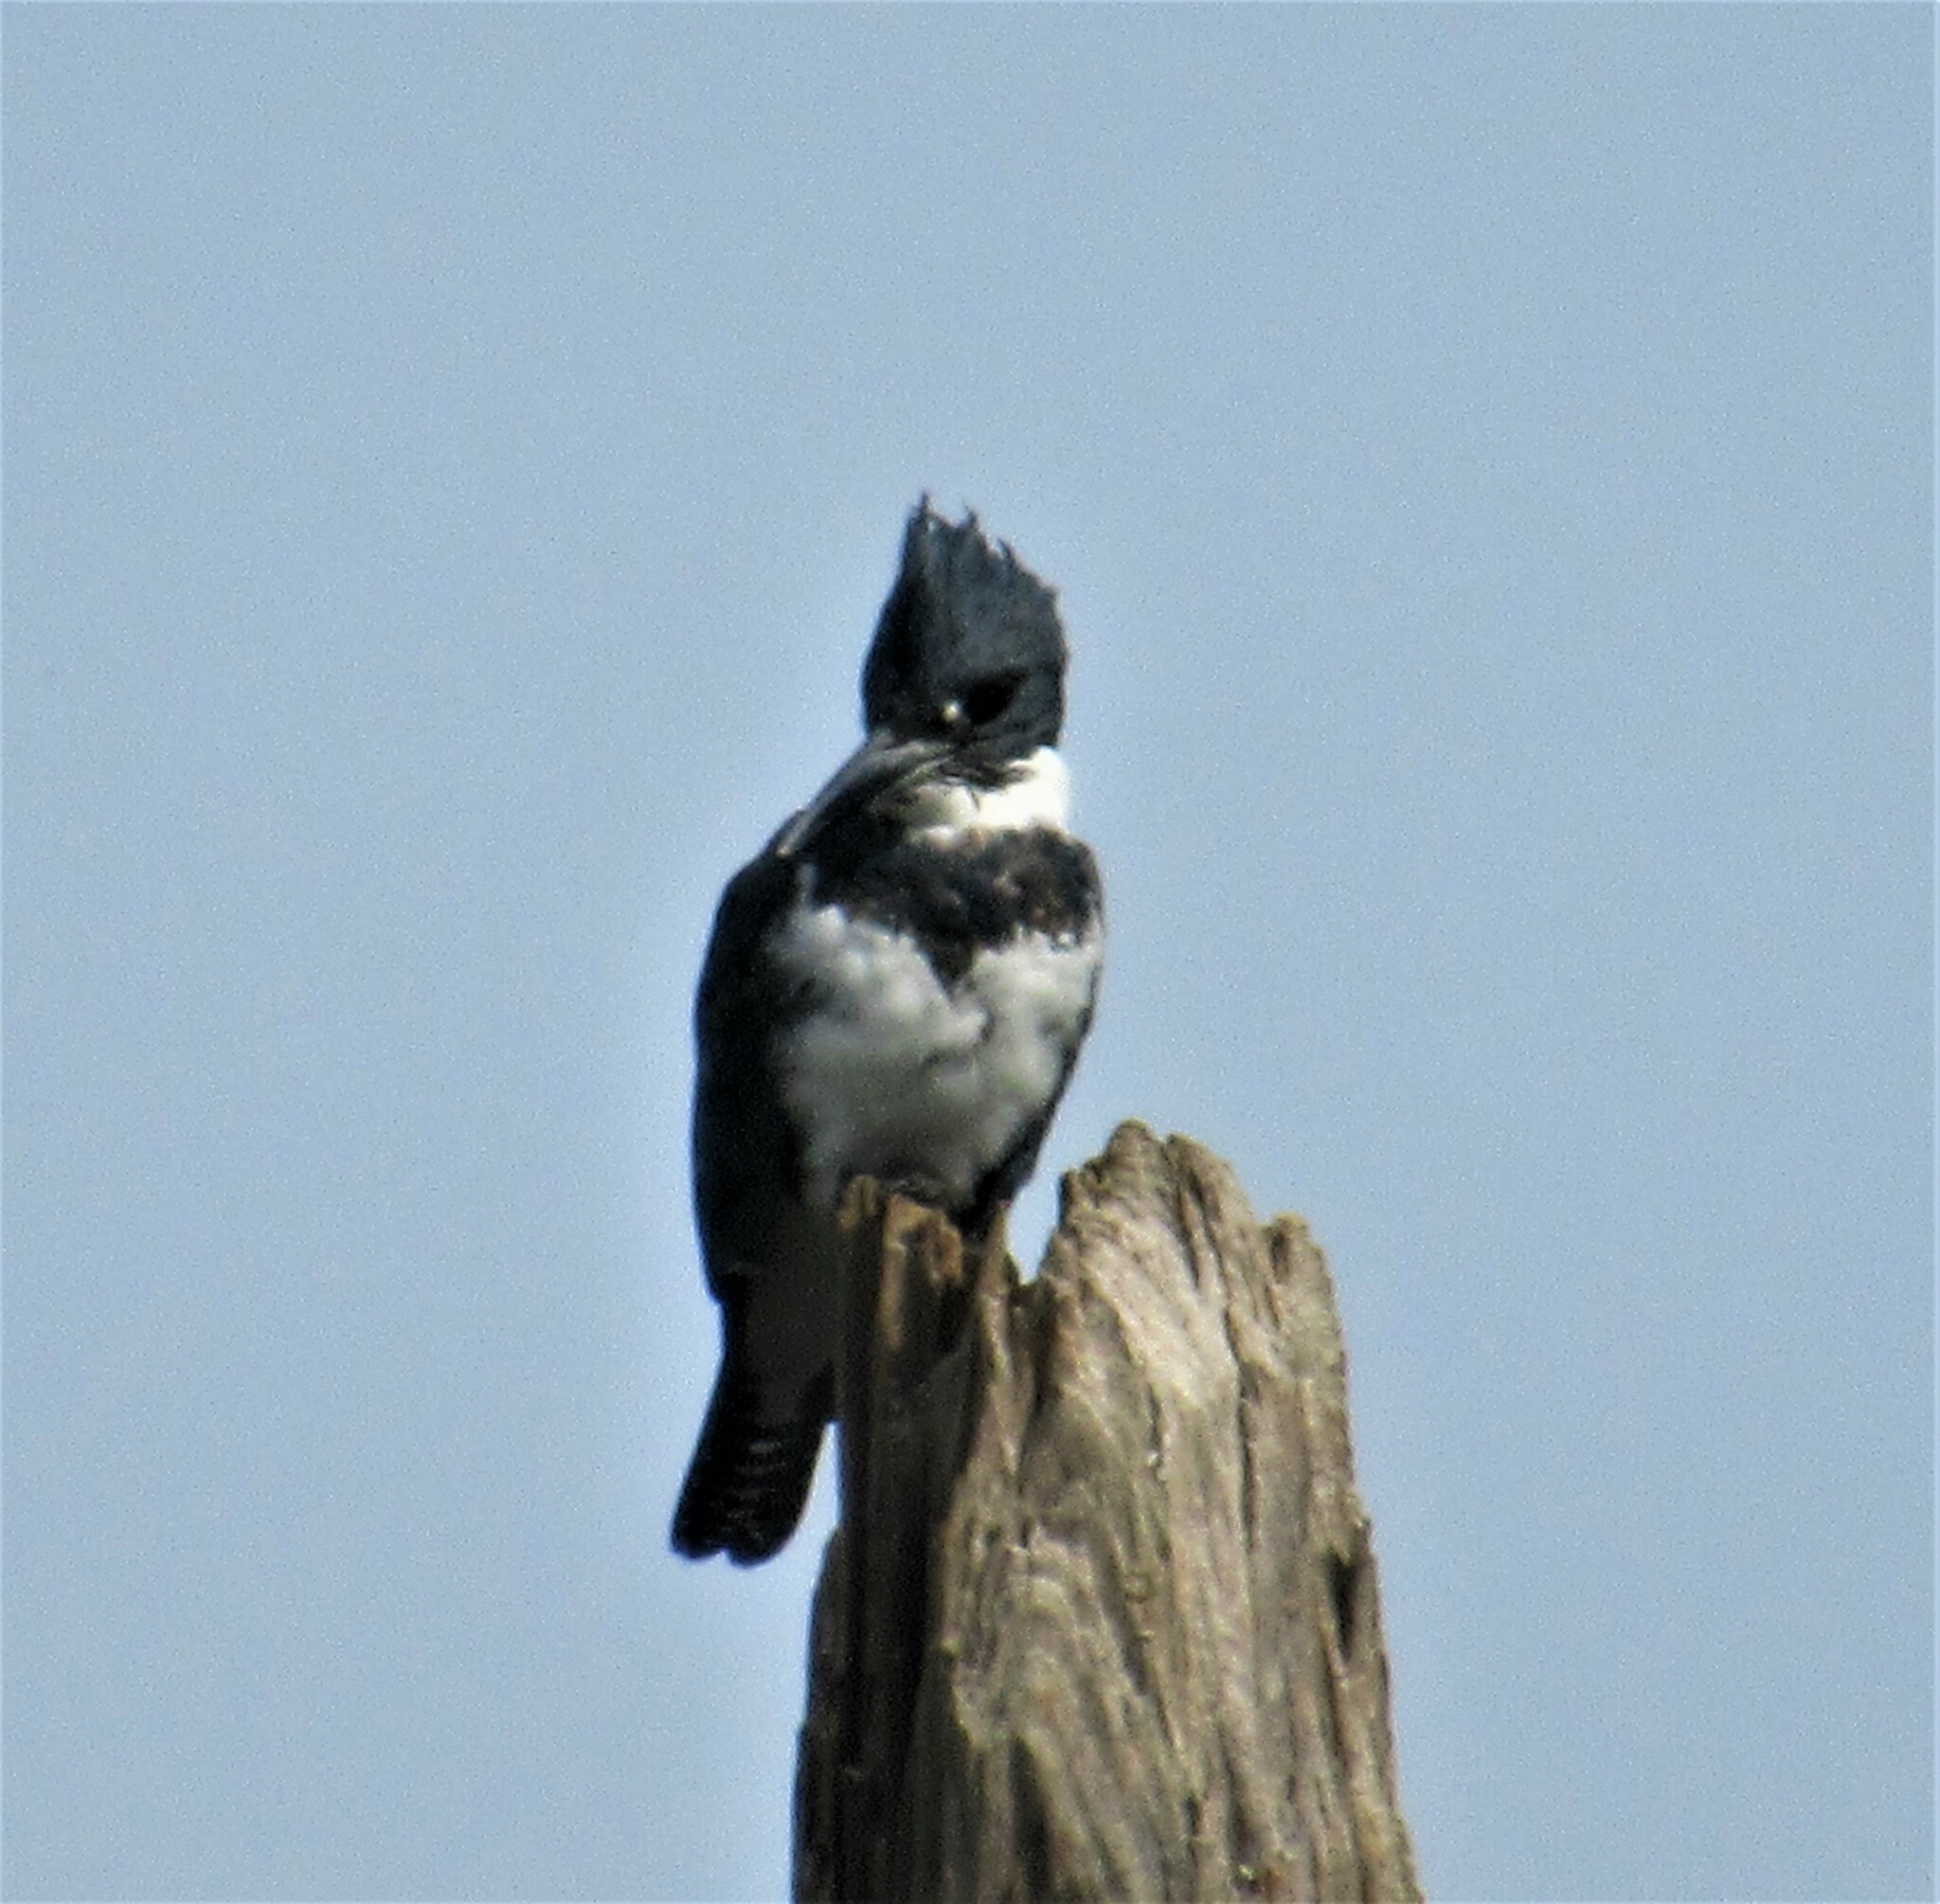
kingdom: Animalia
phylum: Chordata
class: Aves
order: Coraciiformes
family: Alcedinidae
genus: Megaceryle
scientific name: Megaceryle alcyon
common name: Belted kingfisher
